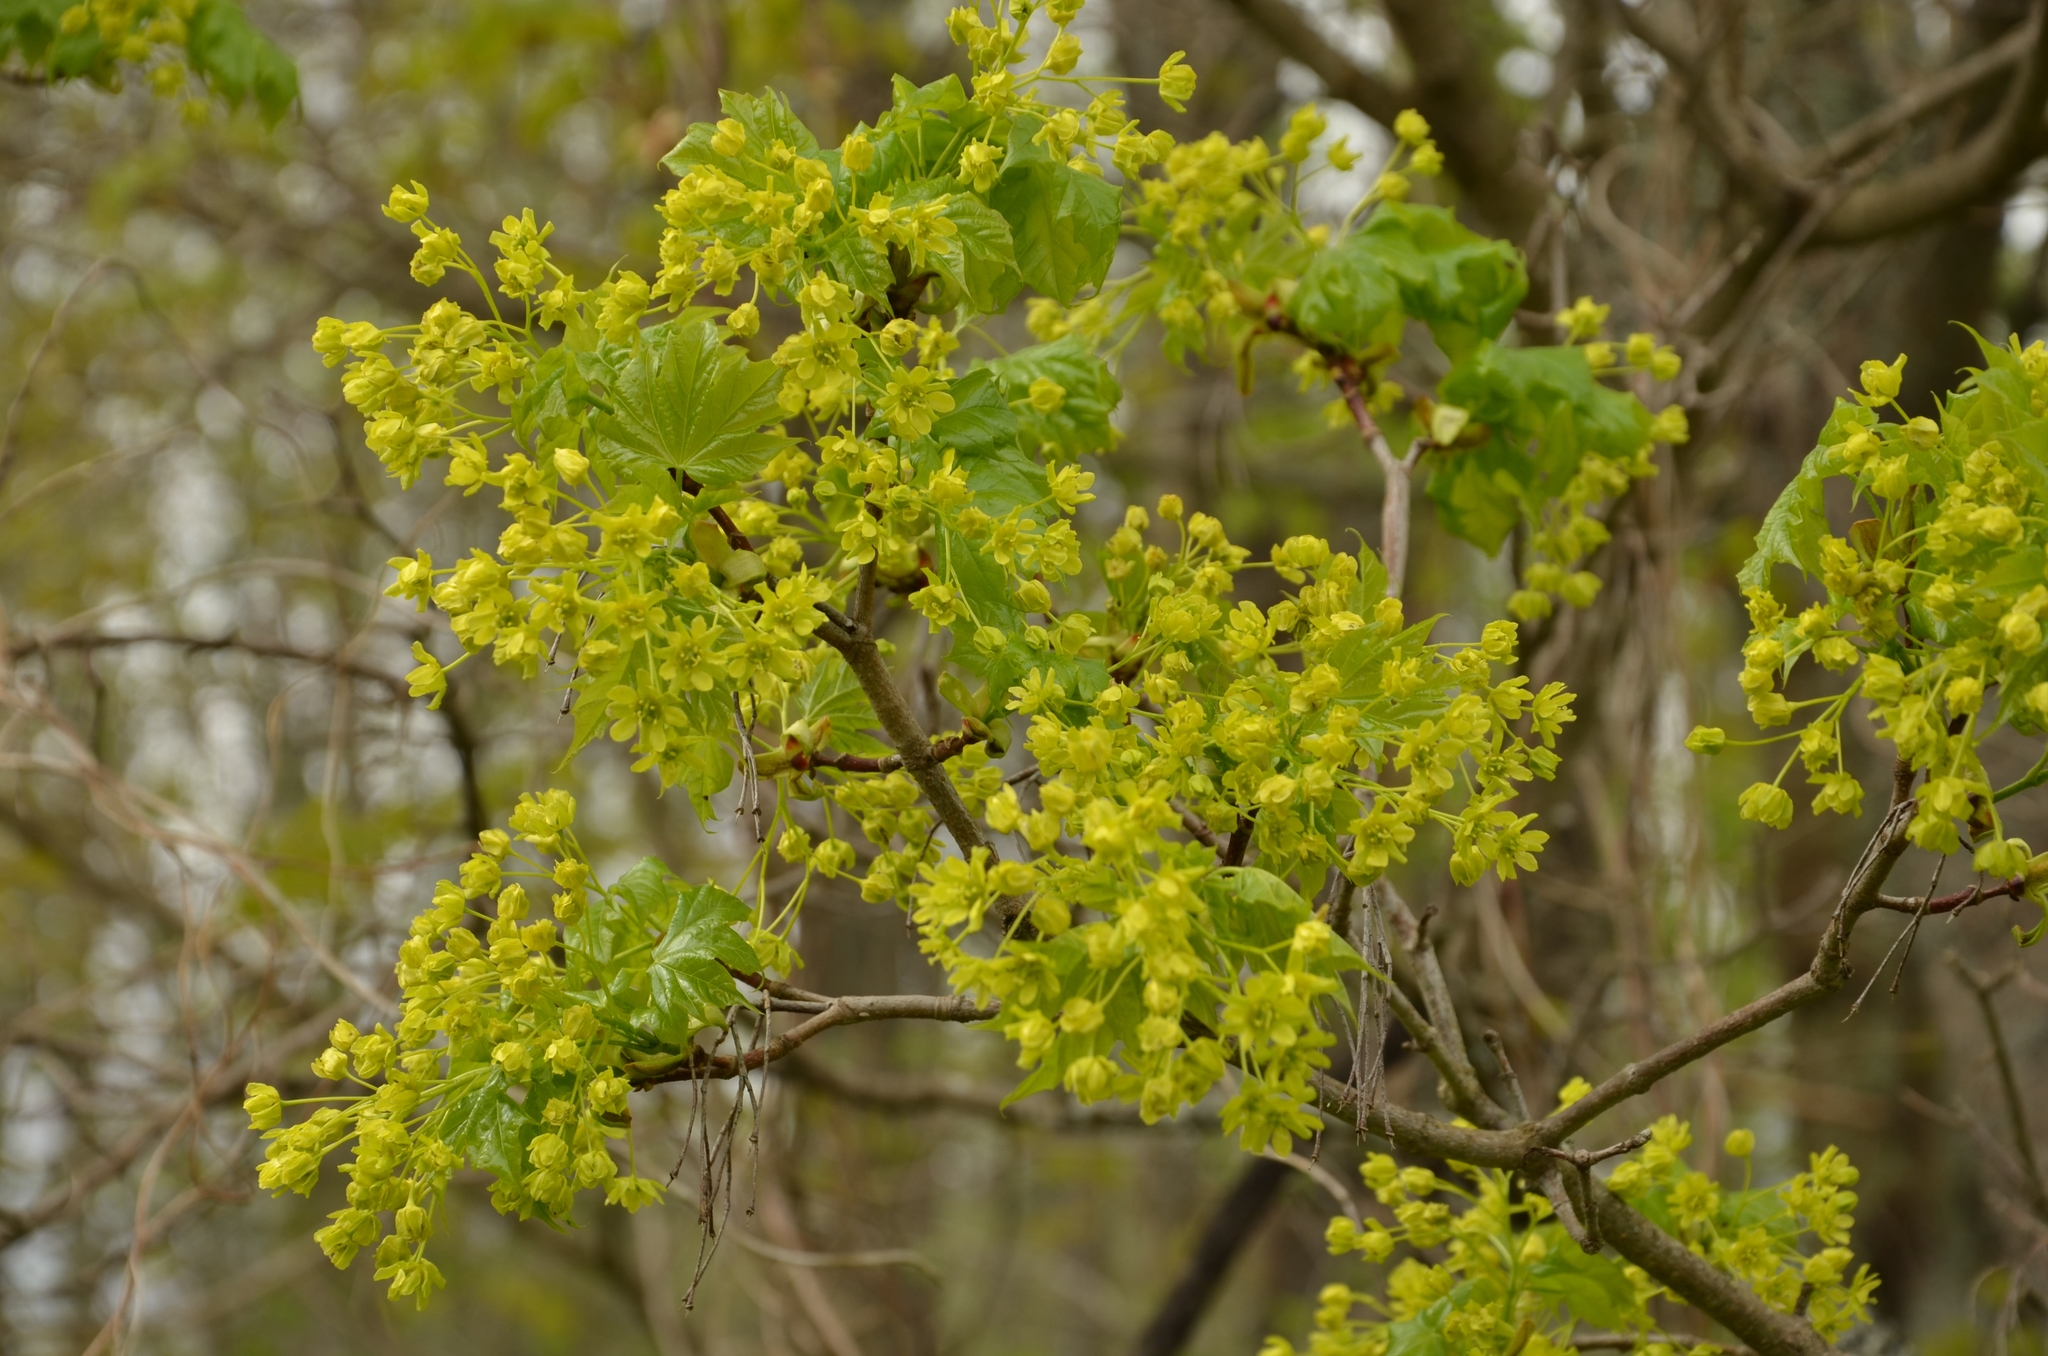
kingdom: Plantae
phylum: Tracheophyta
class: Magnoliopsida
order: Sapindales
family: Sapindaceae
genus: Acer
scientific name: Acer platanoides
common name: Norway maple
